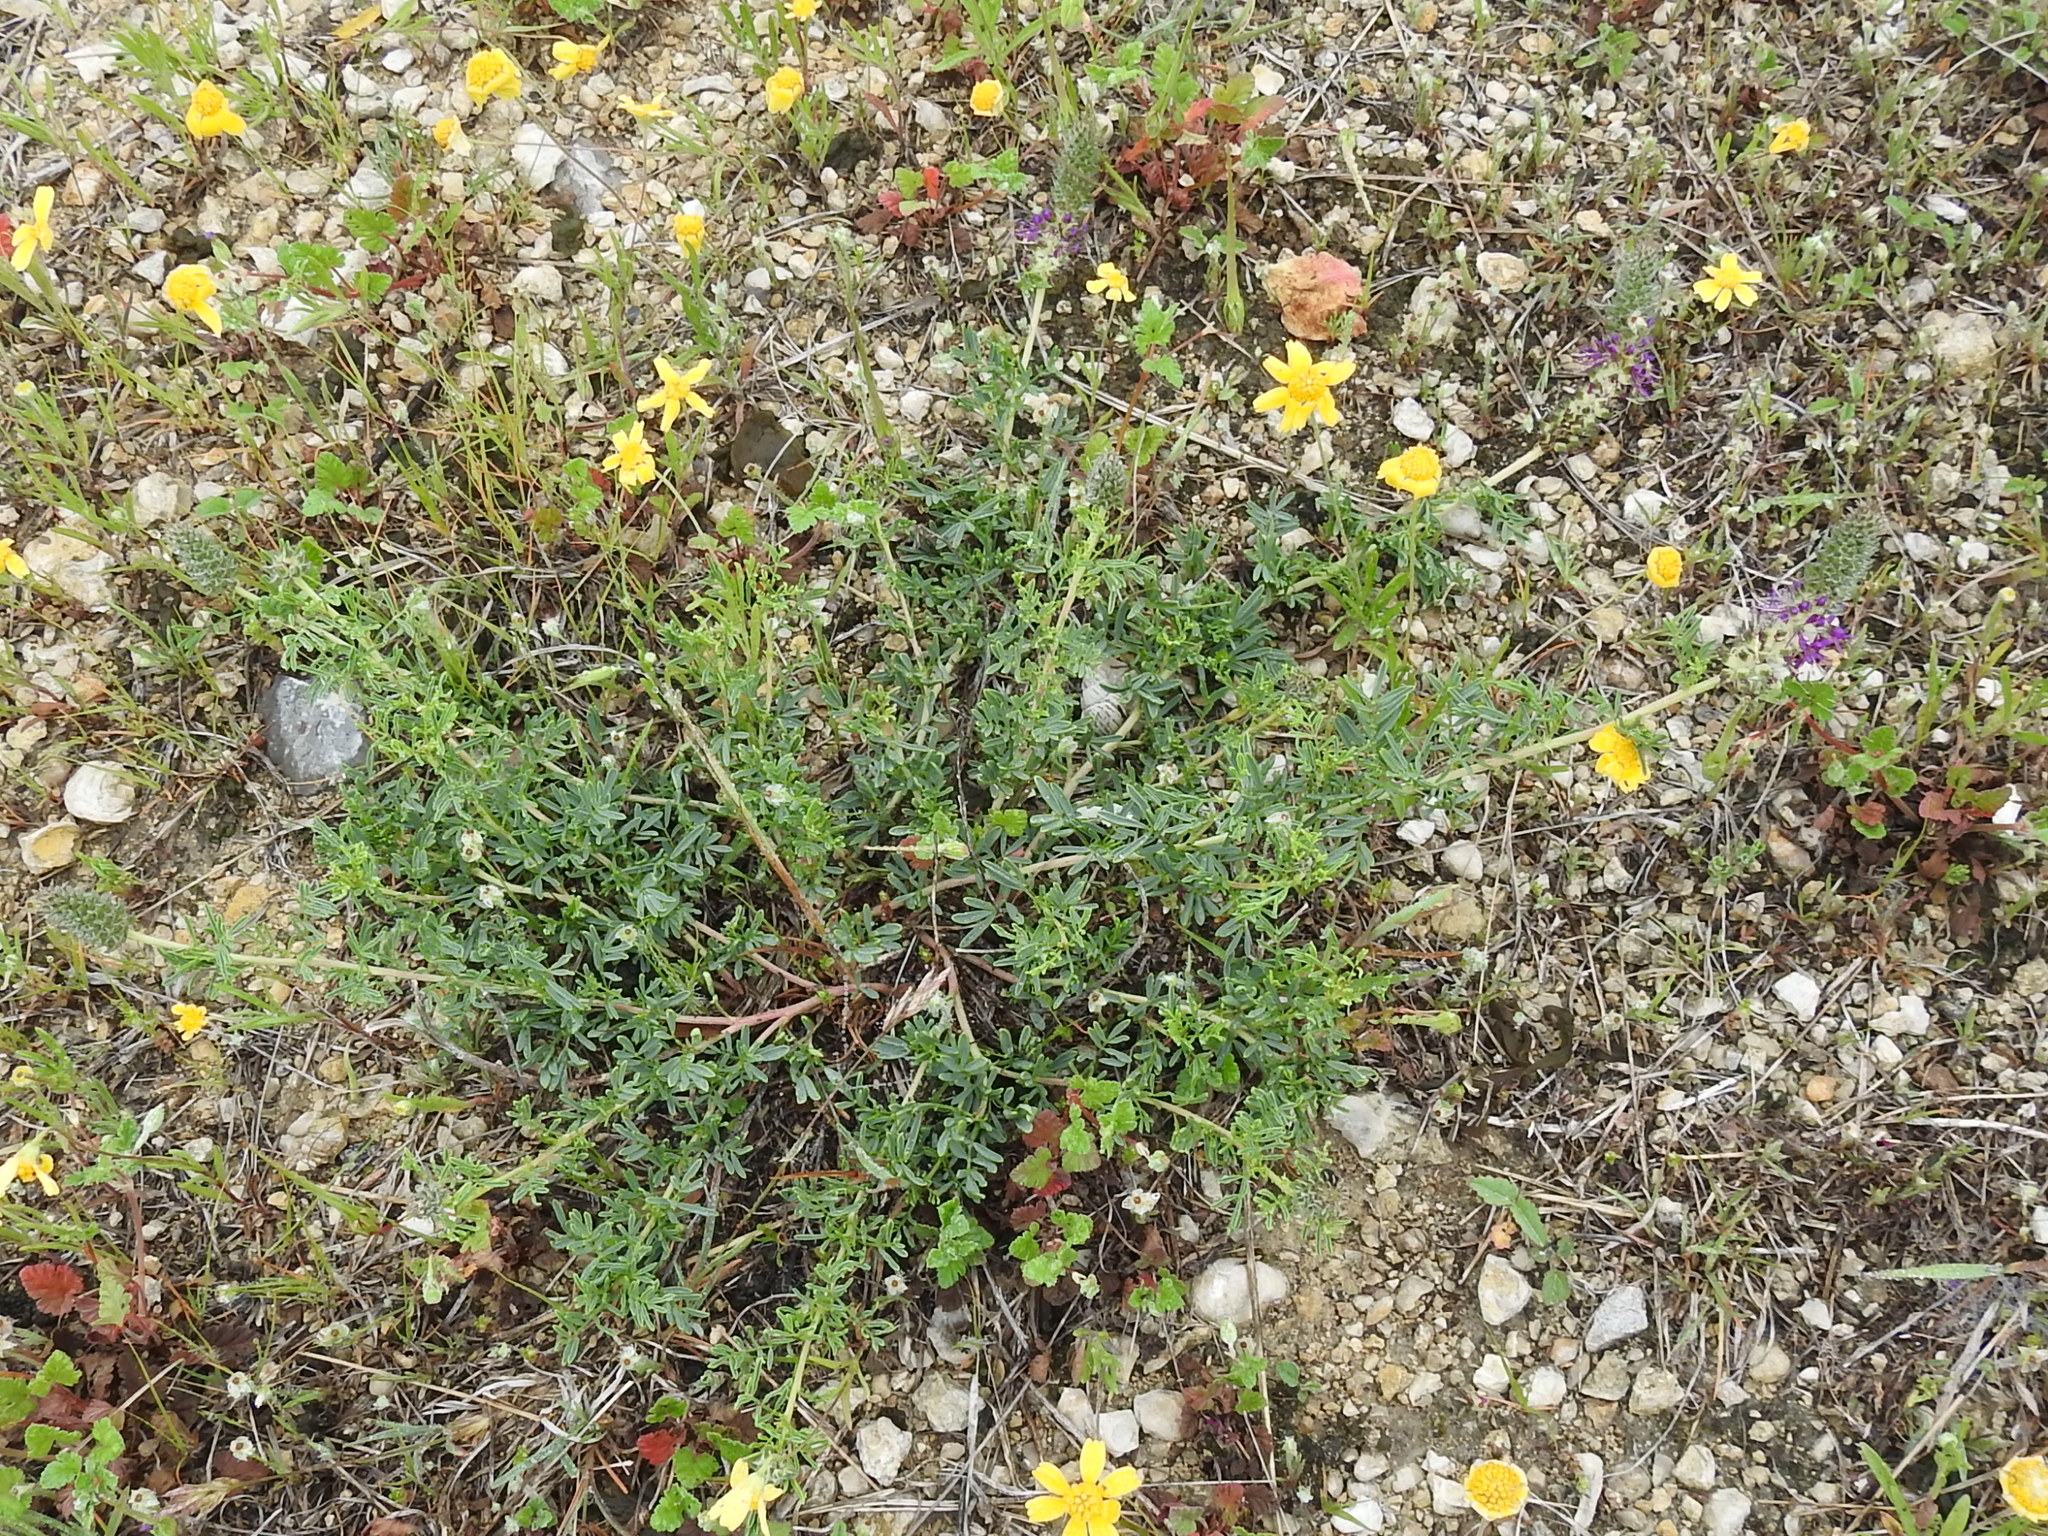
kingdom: Plantae
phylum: Tracheophyta
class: Magnoliopsida
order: Fabales
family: Fabaceae
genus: Dalea
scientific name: Dalea reverchonii
